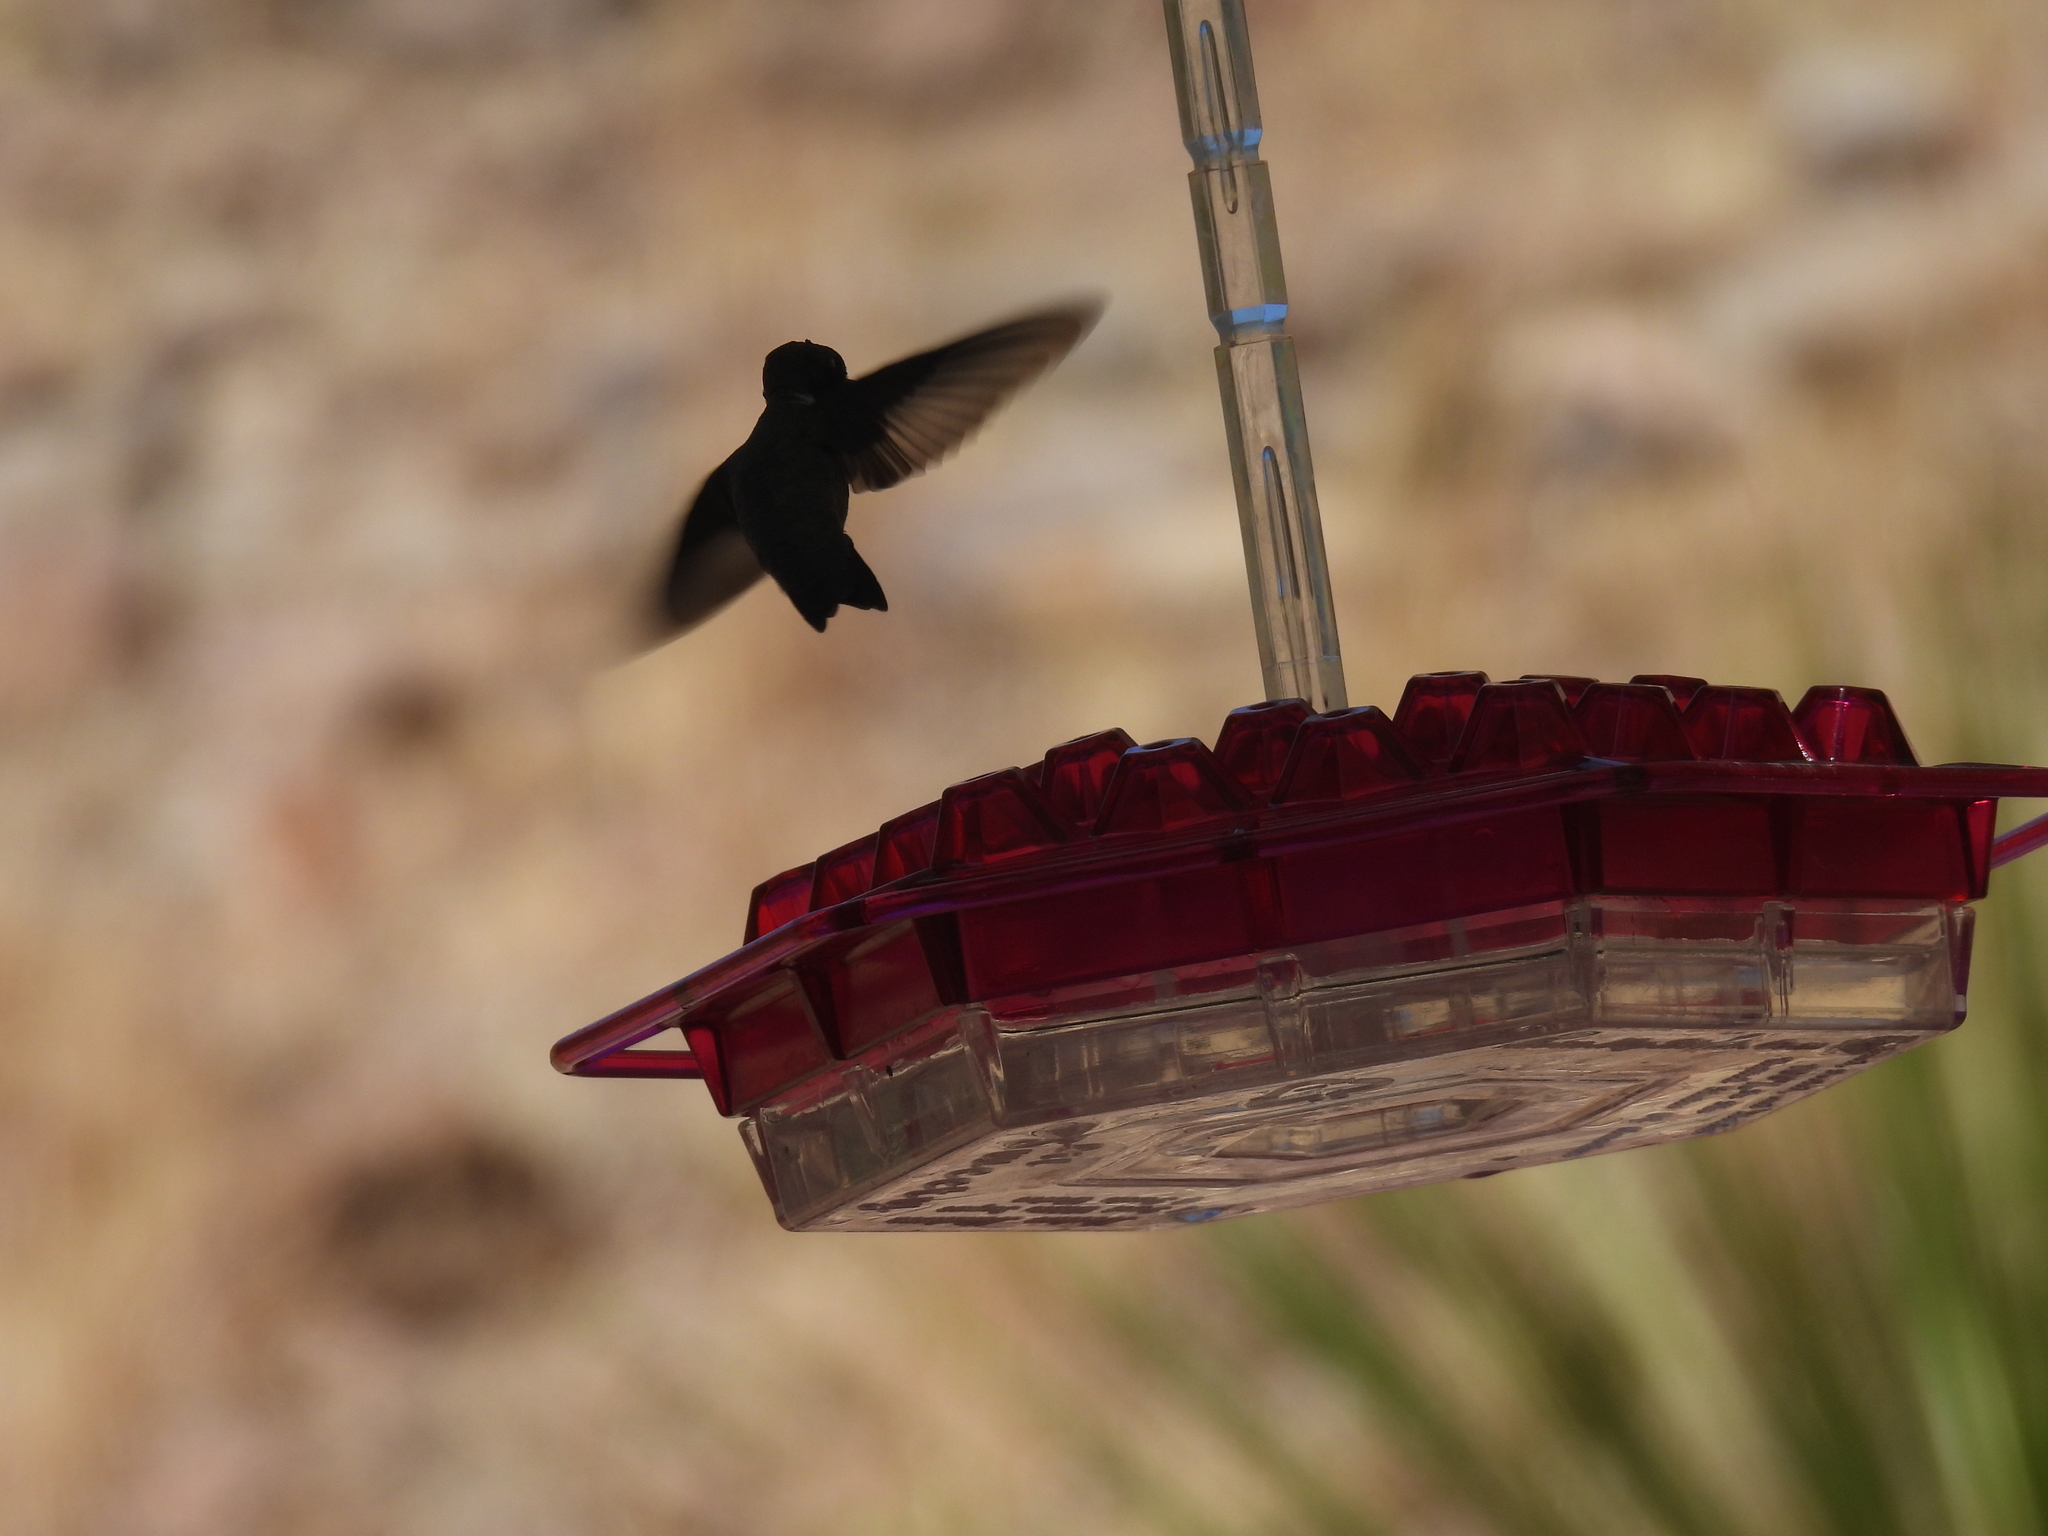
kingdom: Animalia
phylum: Chordata
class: Aves
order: Apodiformes
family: Trochilidae
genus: Archilochus
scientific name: Archilochus alexandri
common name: Black-chinned hummingbird
